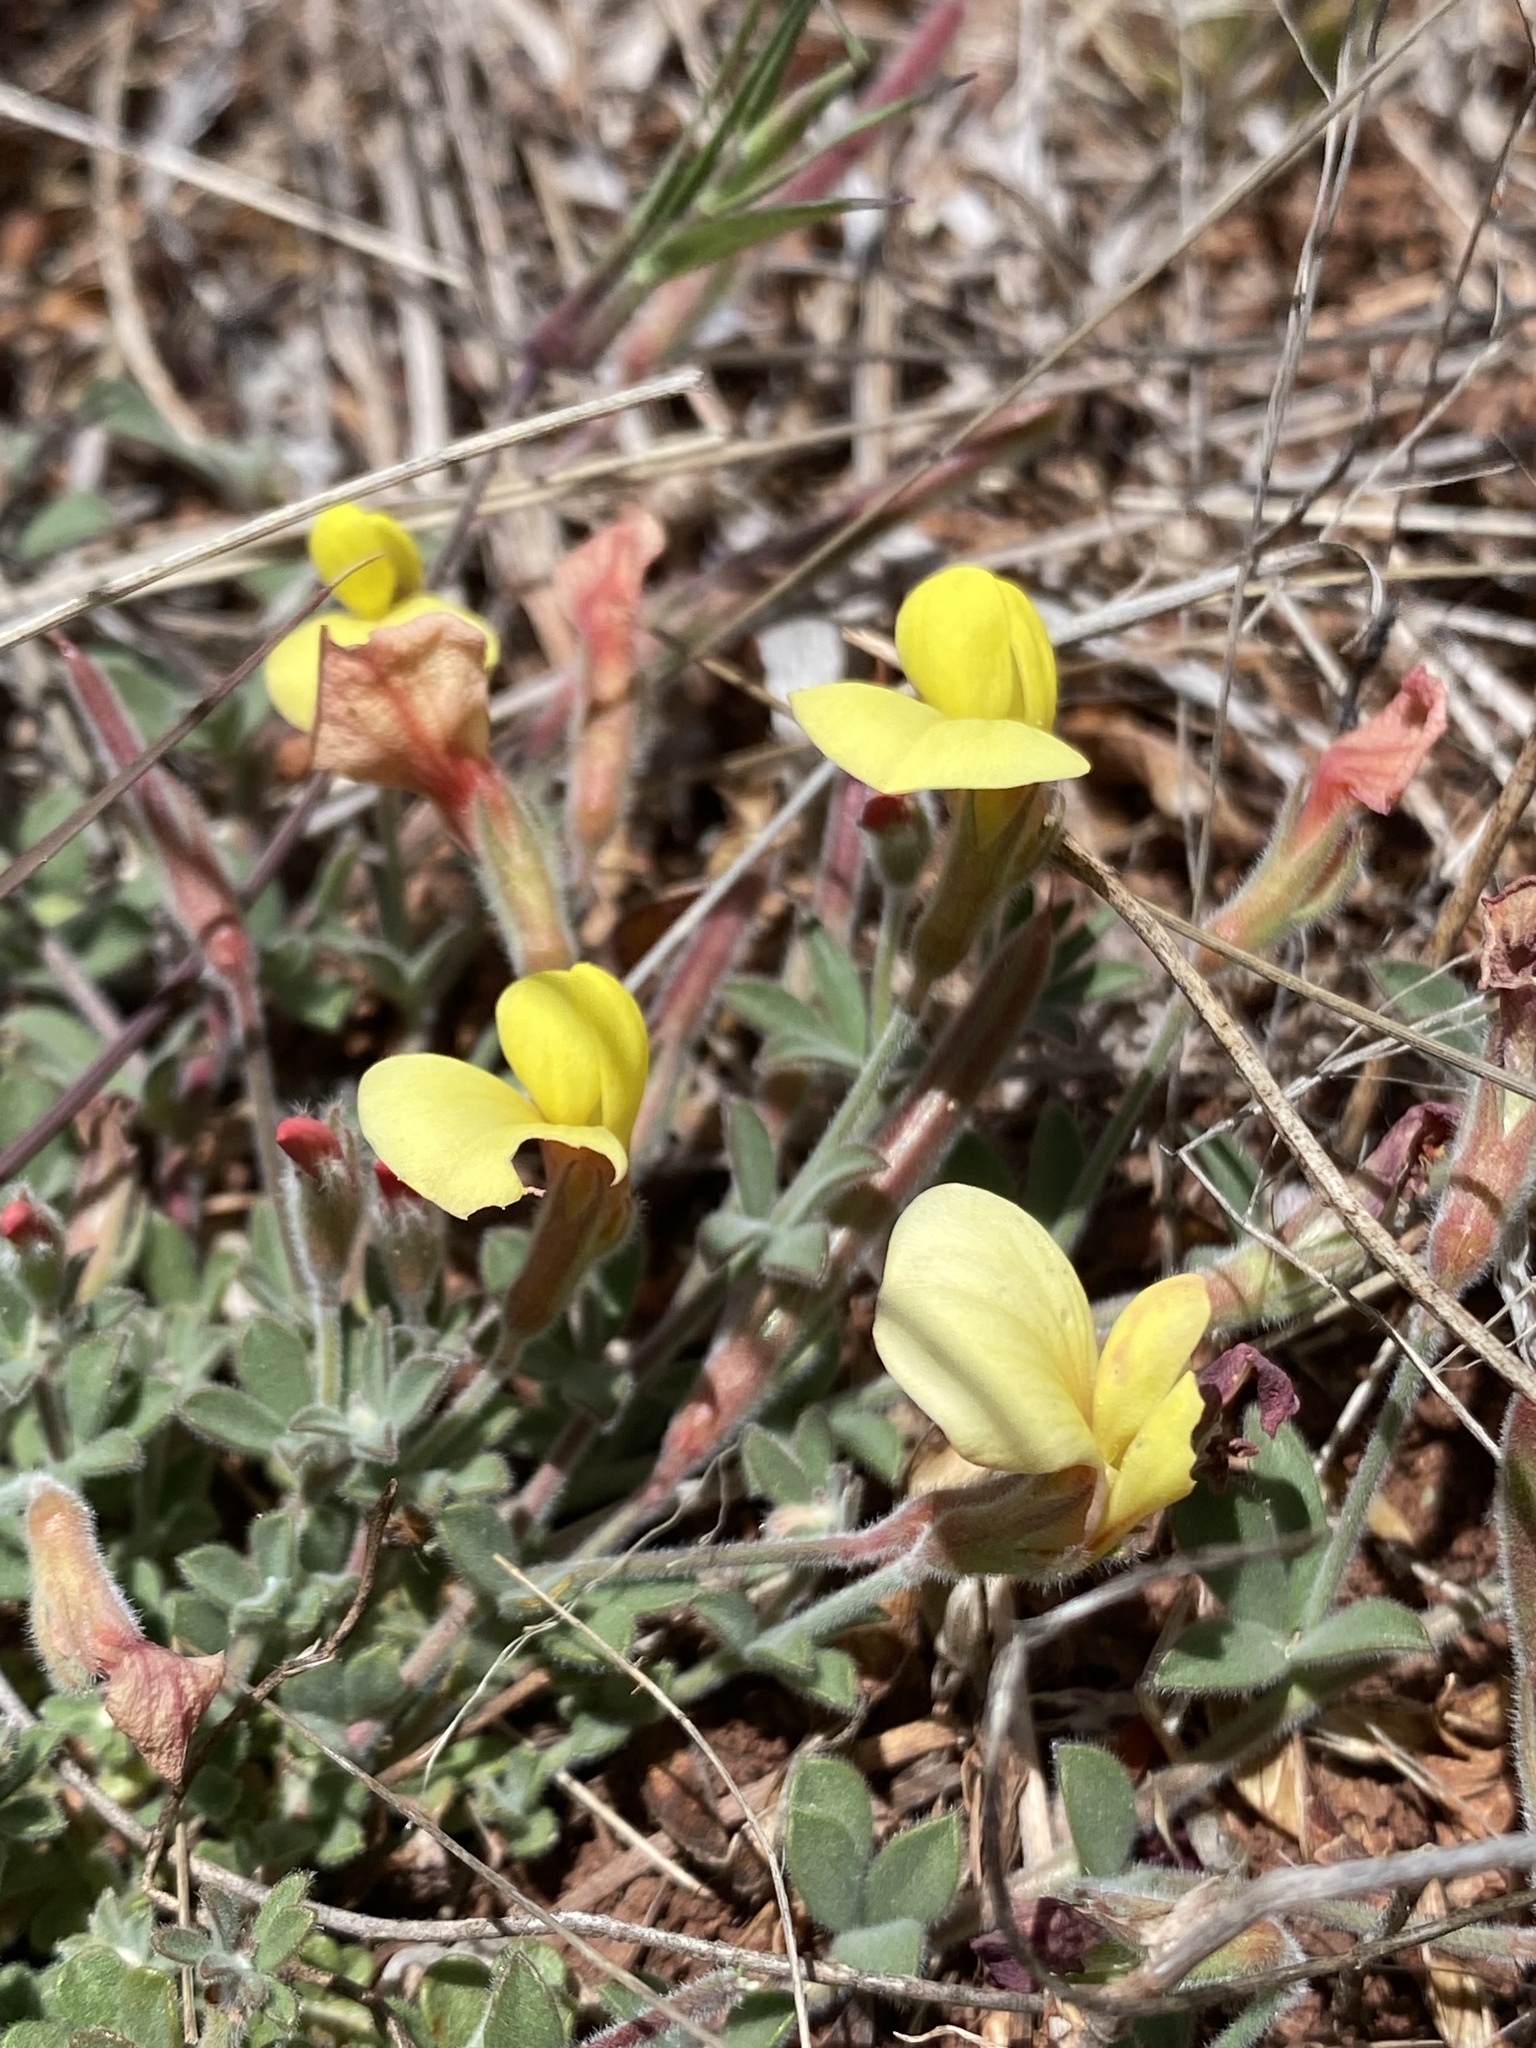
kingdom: Plantae
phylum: Tracheophyta
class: Magnoliopsida
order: Fabales
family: Fabaceae
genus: Acmispon
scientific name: Acmispon neomexicanus
